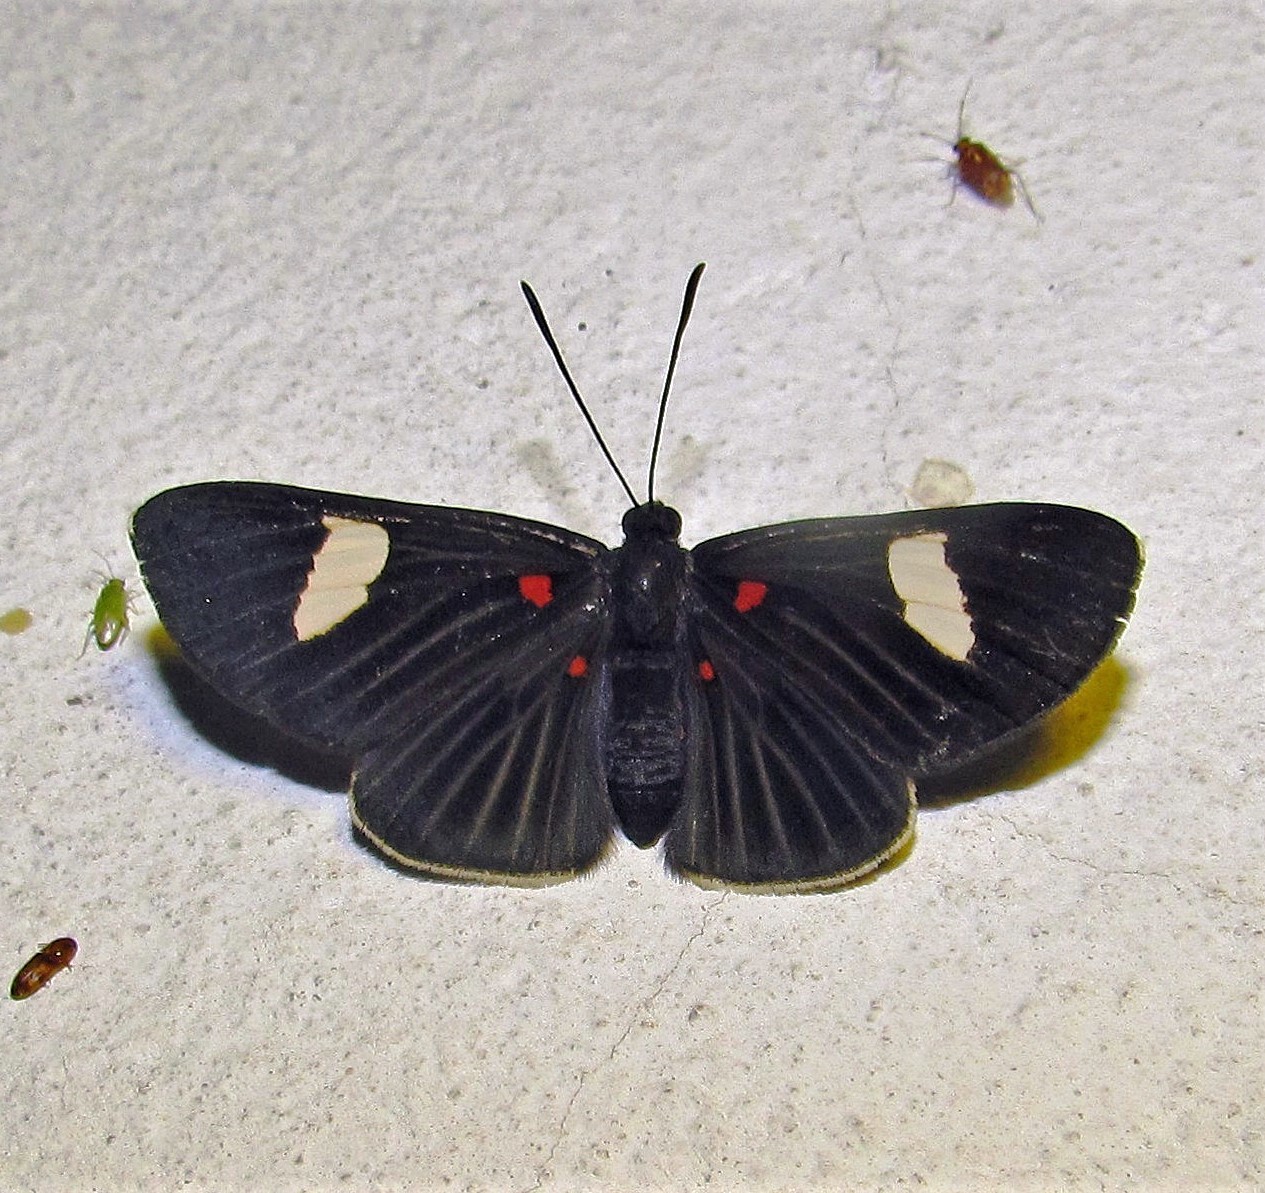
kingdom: Animalia
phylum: Arthropoda
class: Insecta
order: Lepidoptera
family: Lycaenidae
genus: Melanis
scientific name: Melanis aegates
